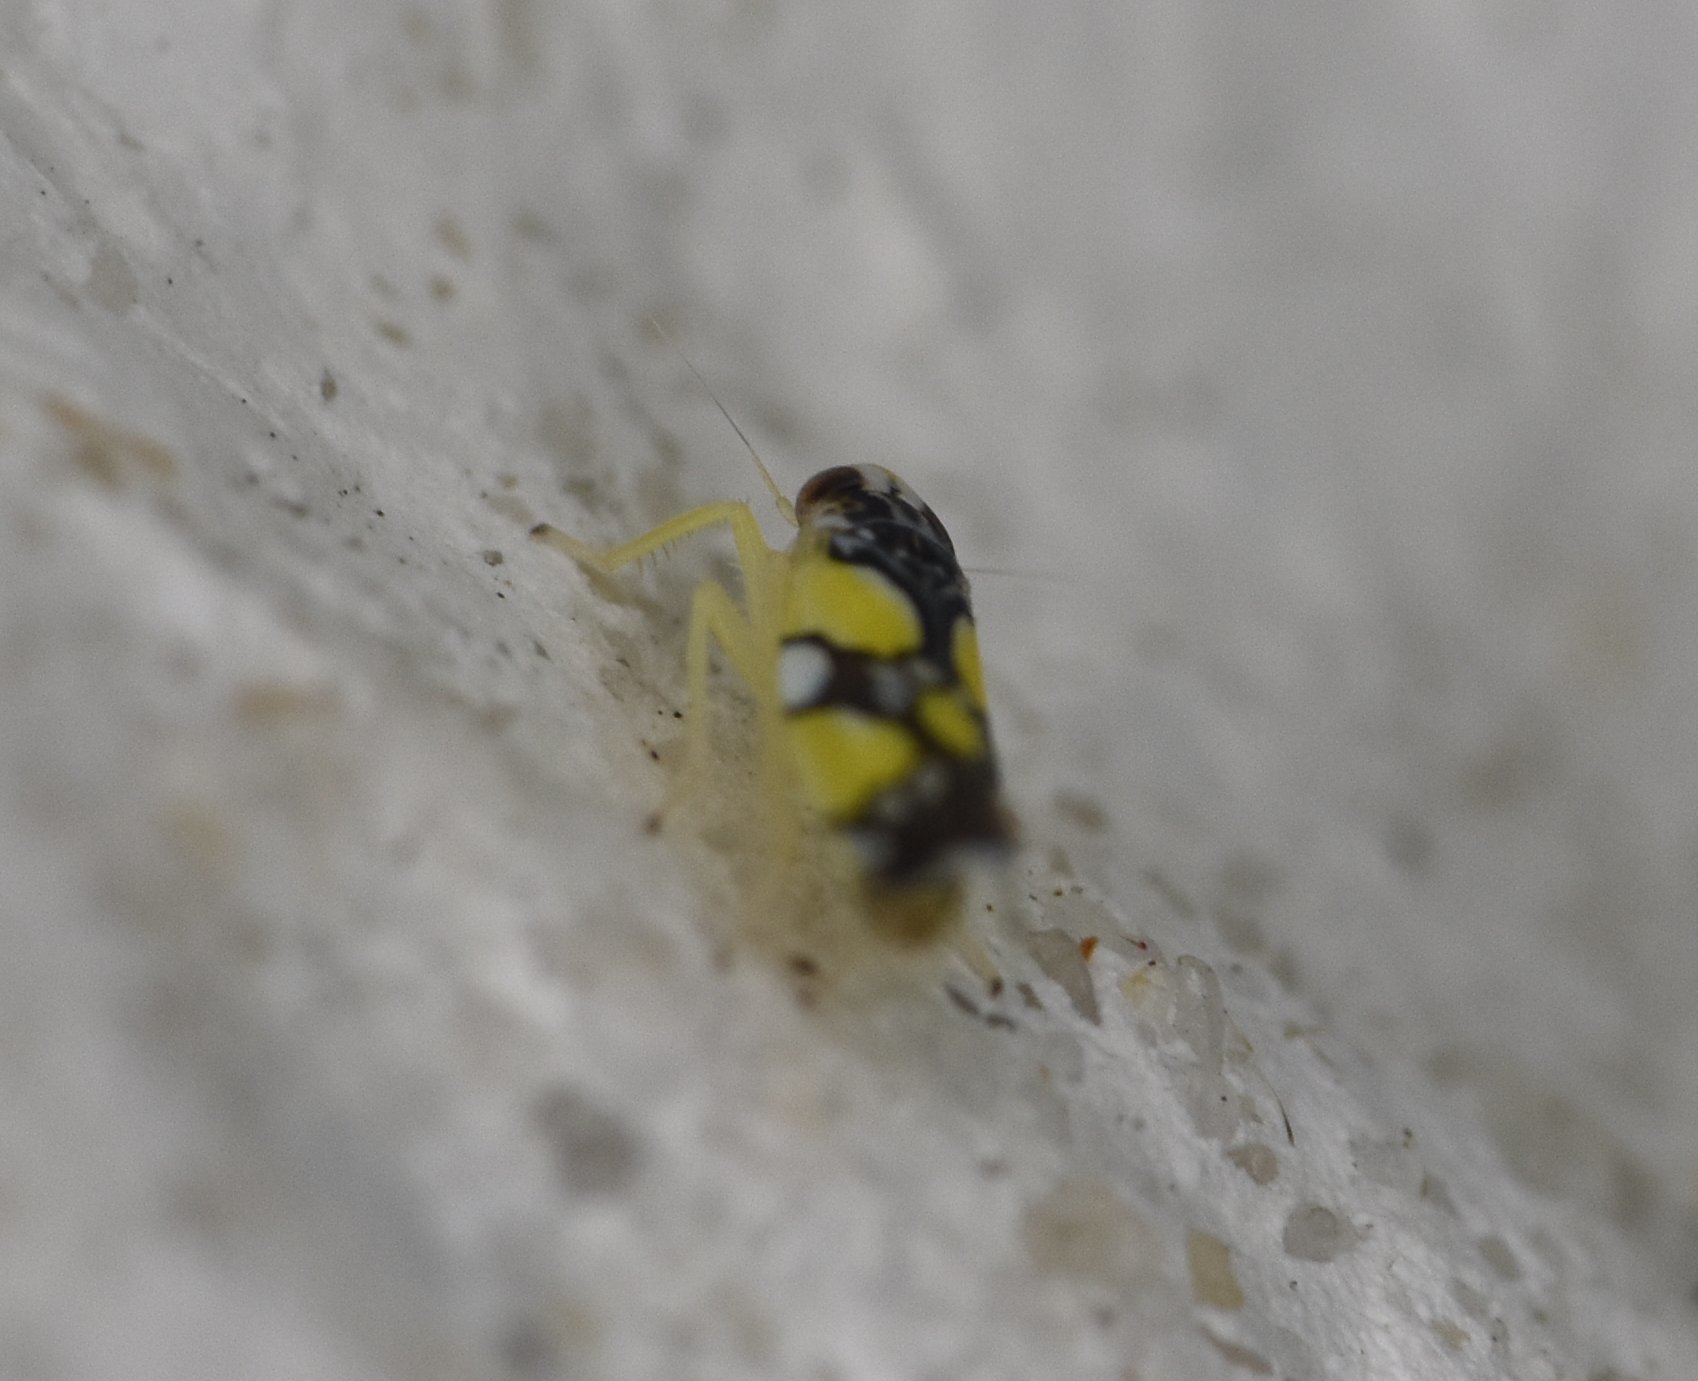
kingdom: Animalia
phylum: Arthropoda
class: Insecta
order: Hemiptera
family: Cicadellidae
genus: Protalebrella
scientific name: Protalebrella brasiliensis
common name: Brasilian leafhopper
